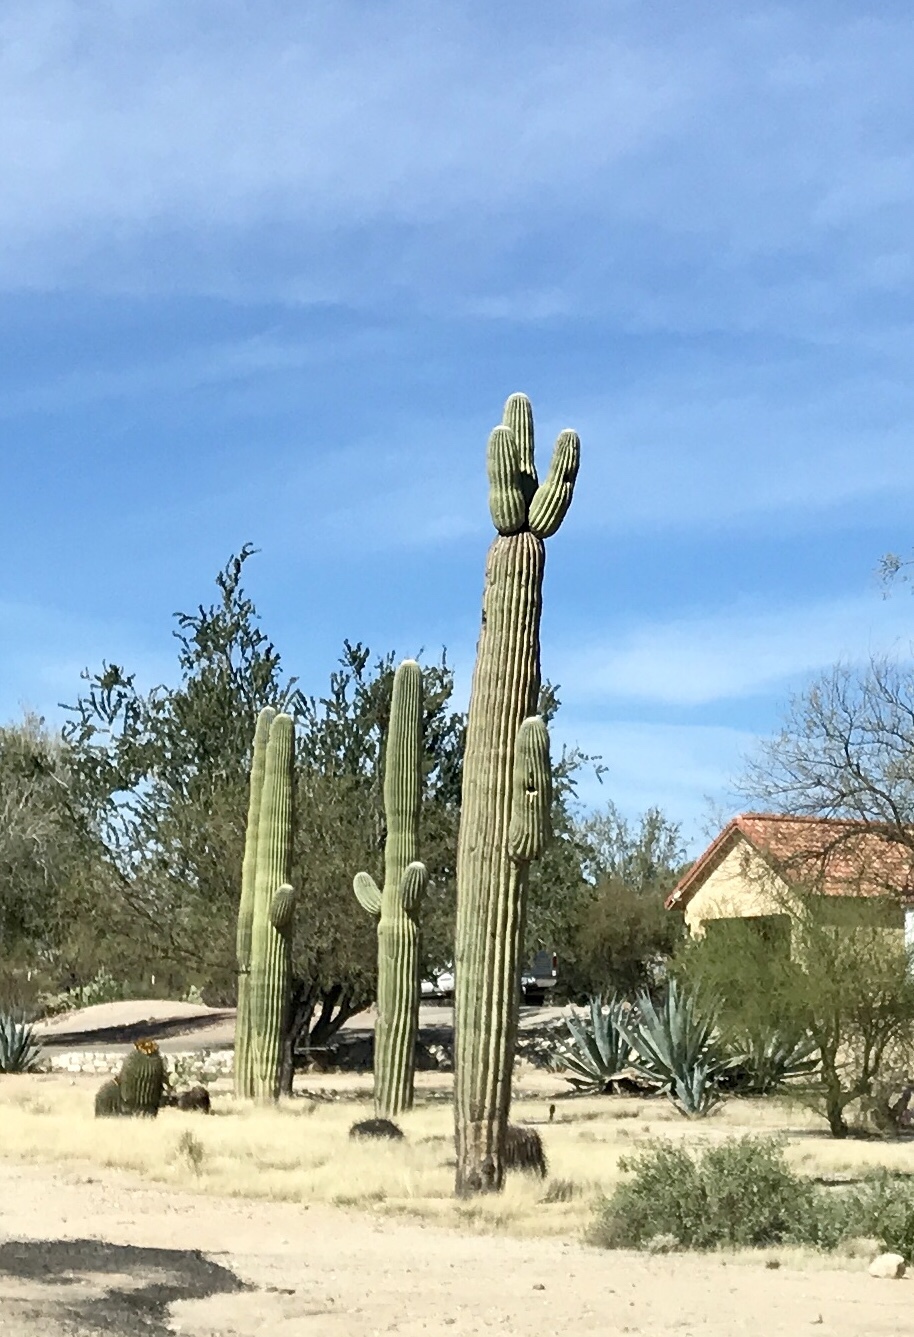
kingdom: Plantae
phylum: Tracheophyta
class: Magnoliopsida
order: Caryophyllales
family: Cactaceae
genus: Carnegiea
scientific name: Carnegiea gigantea
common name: Saguaro
